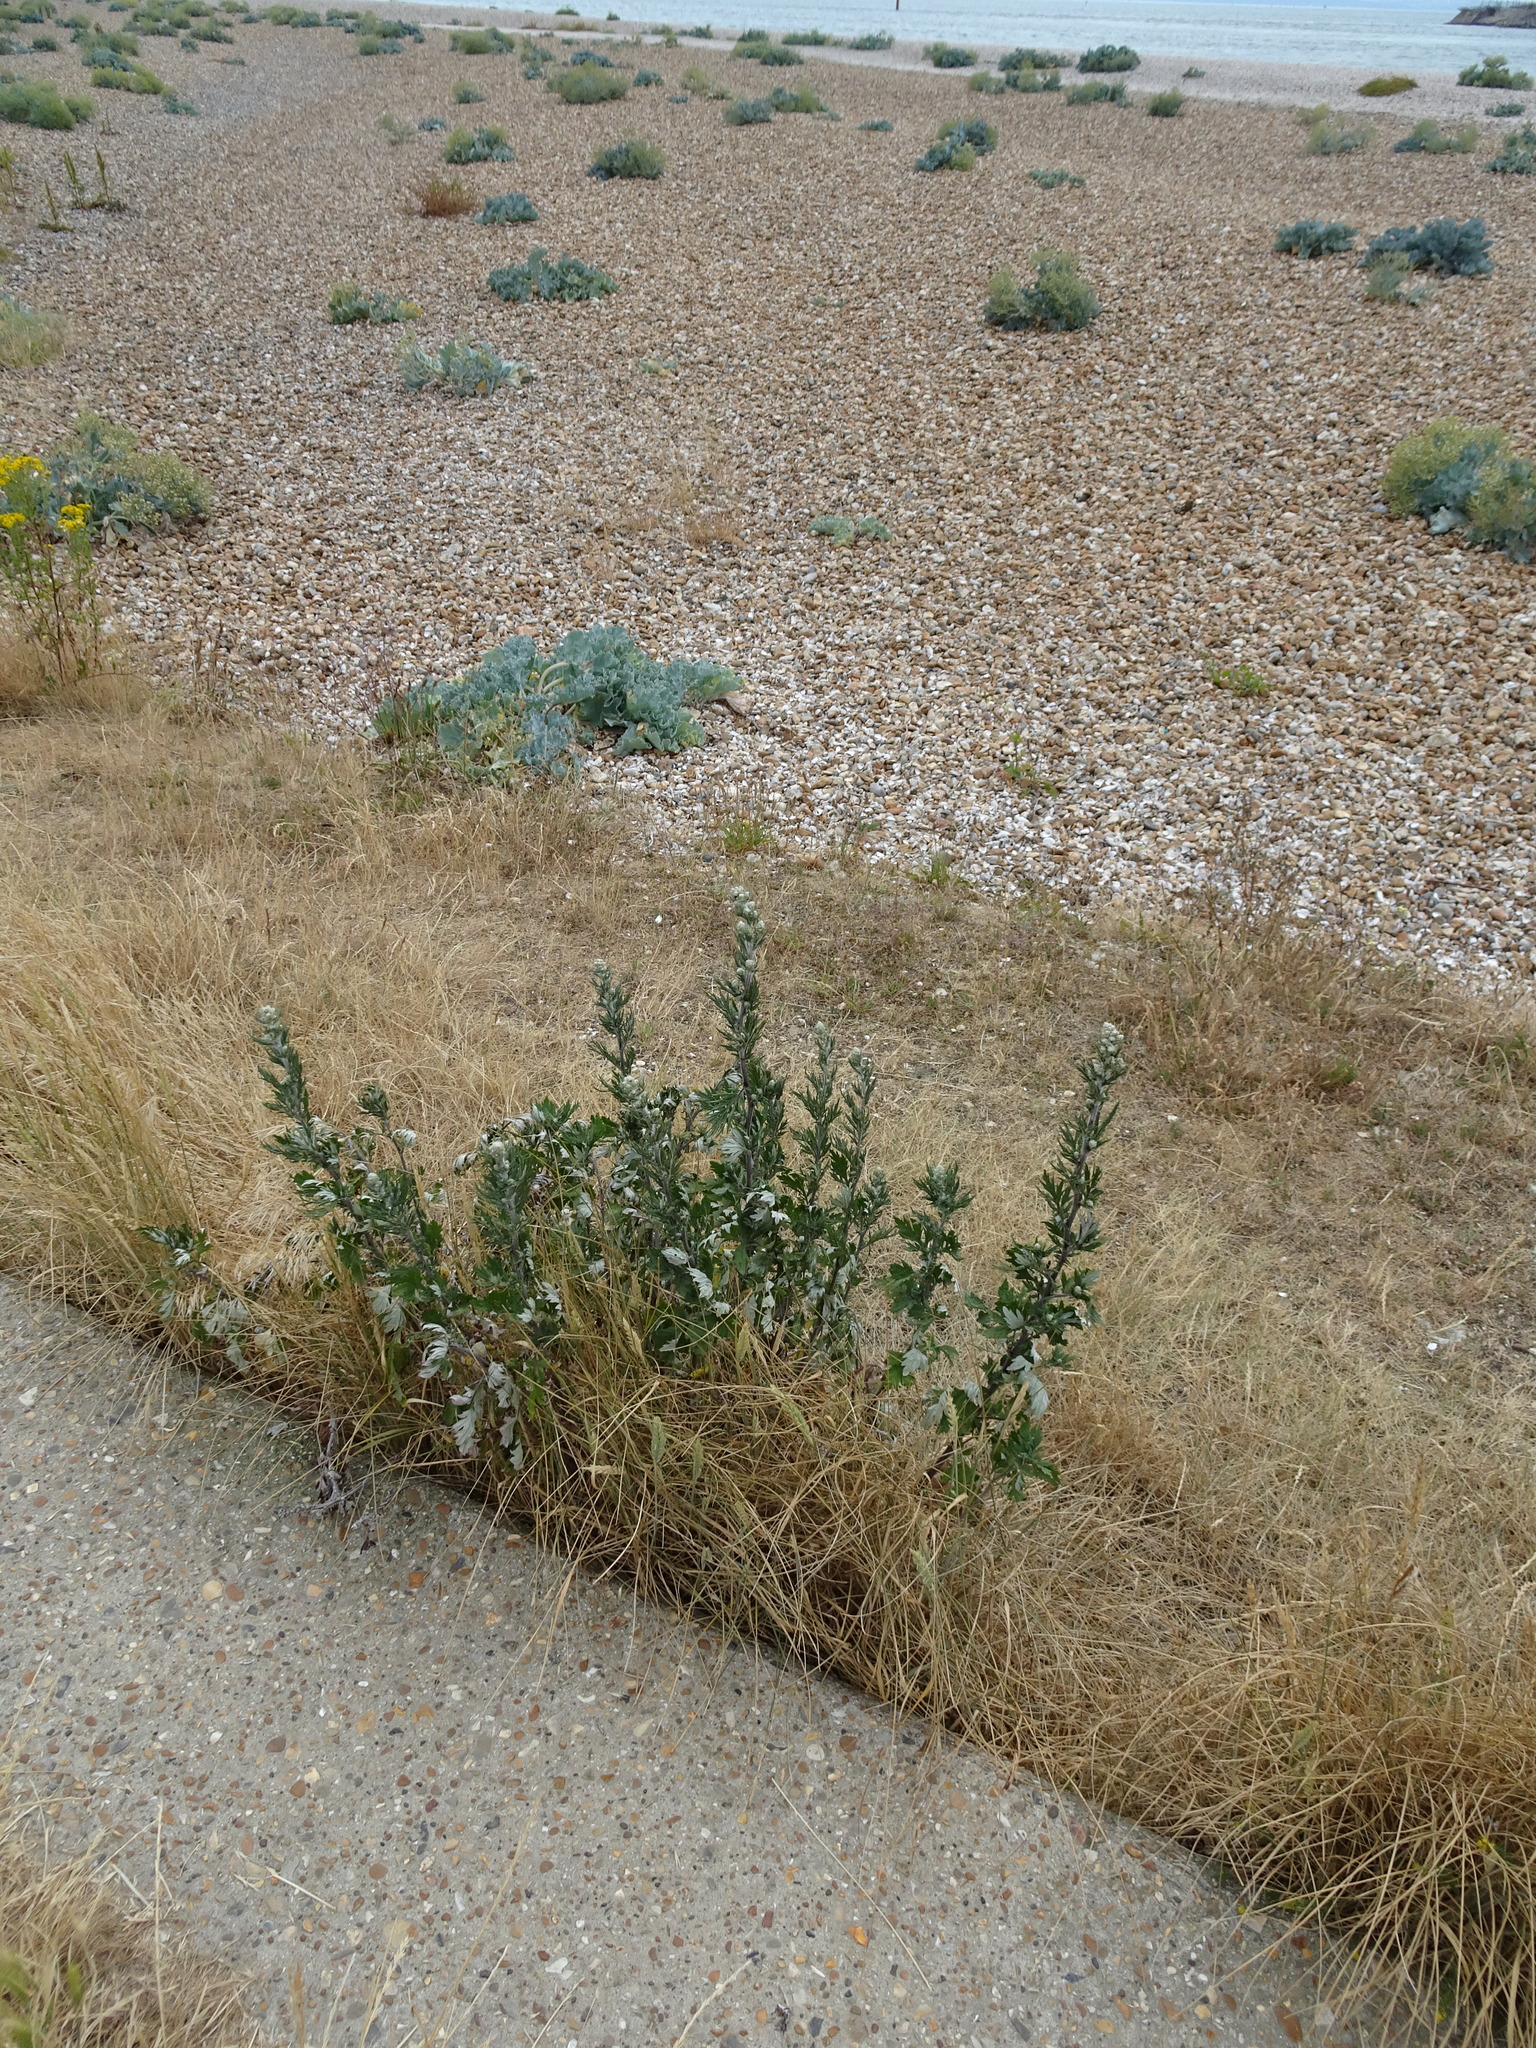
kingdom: Plantae
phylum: Tracheophyta
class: Magnoliopsida
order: Asterales
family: Asteraceae
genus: Artemisia
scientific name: Artemisia vulgaris
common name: Mugwort
